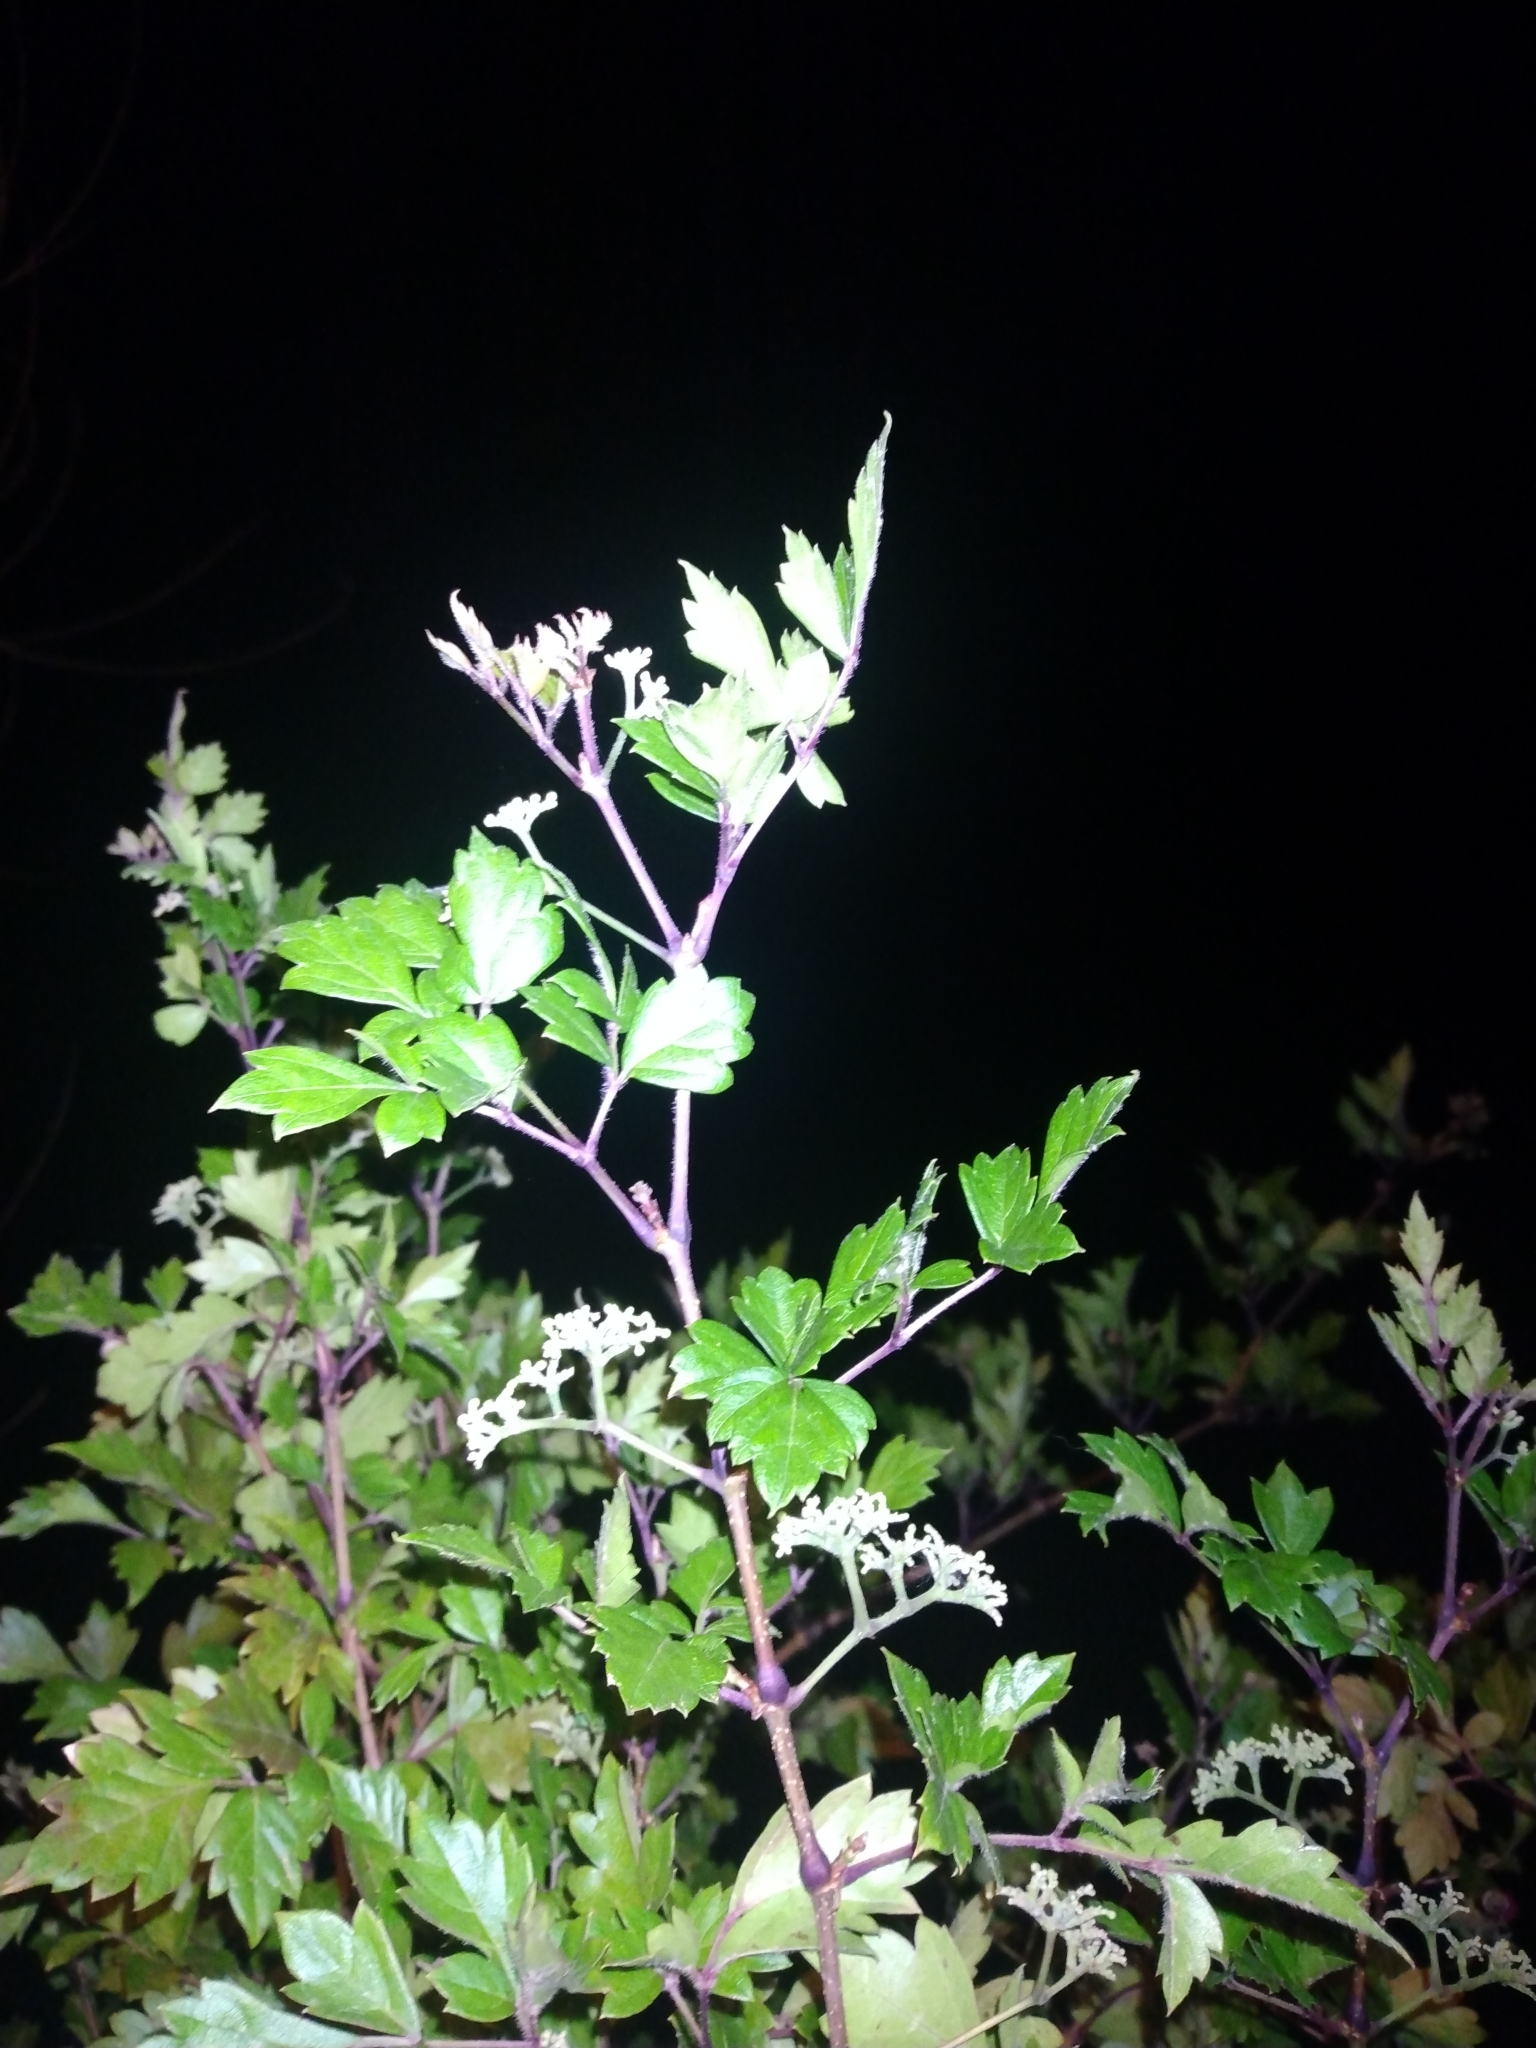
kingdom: Plantae
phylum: Tracheophyta
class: Magnoliopsida
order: Vitales
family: Vitaceae
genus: Nekemias
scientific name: Nekemias arborea
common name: Peppervine
